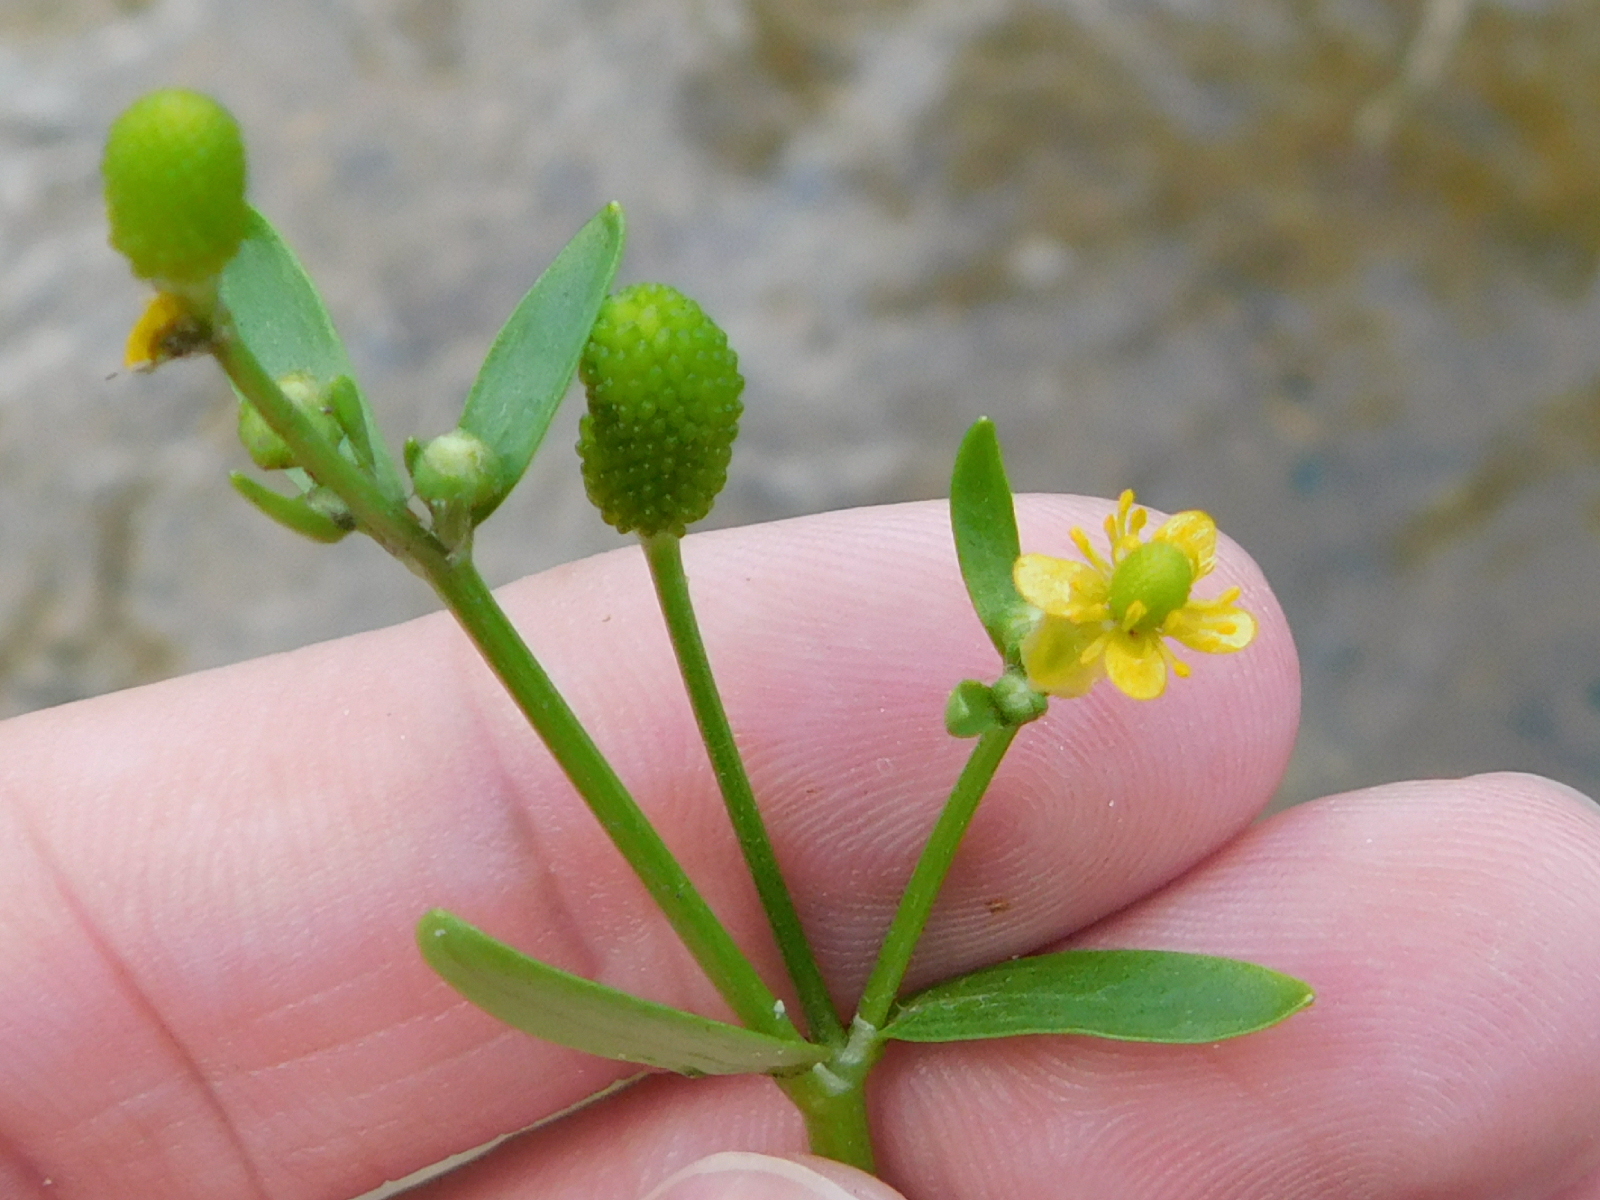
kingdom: Plantae
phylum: Tracheophyta
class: Magnoliopsida
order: Ranunculales
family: Ranunculaceae
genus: Ranunculus
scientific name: Ranunculus sceleratus
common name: Celery-leaved buttercup
